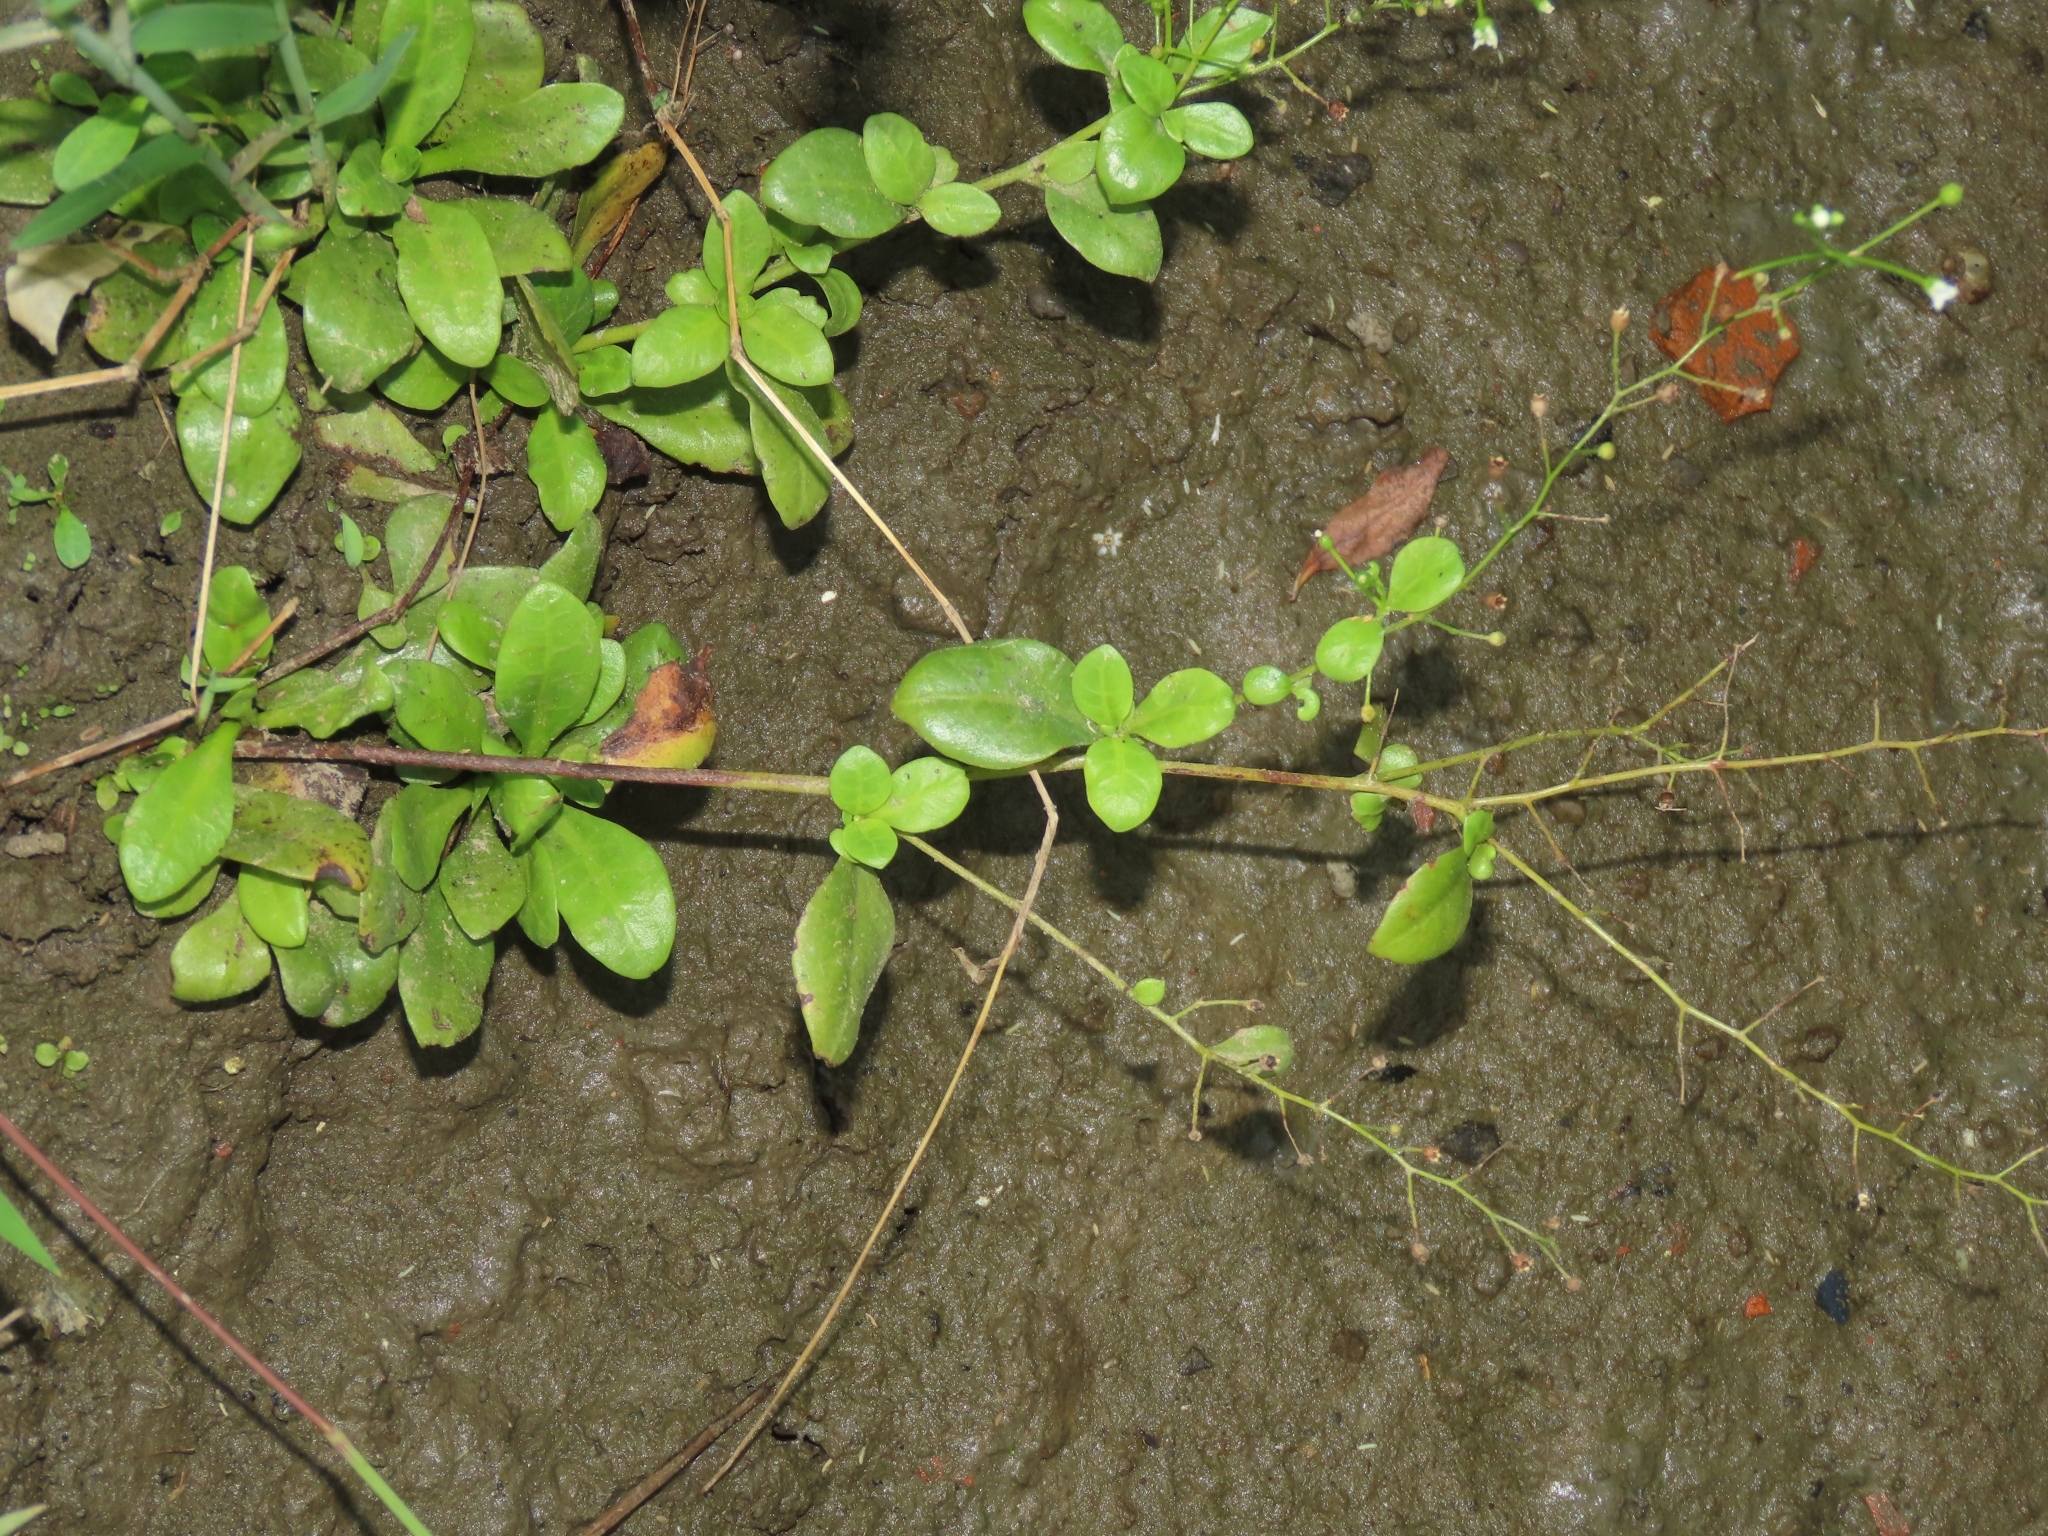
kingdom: Plantae
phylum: Tracheophyta
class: Magnoliopsida
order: Ericales
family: Primulaceae
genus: Samolus
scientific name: Samolus valerandi
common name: Brookweed
